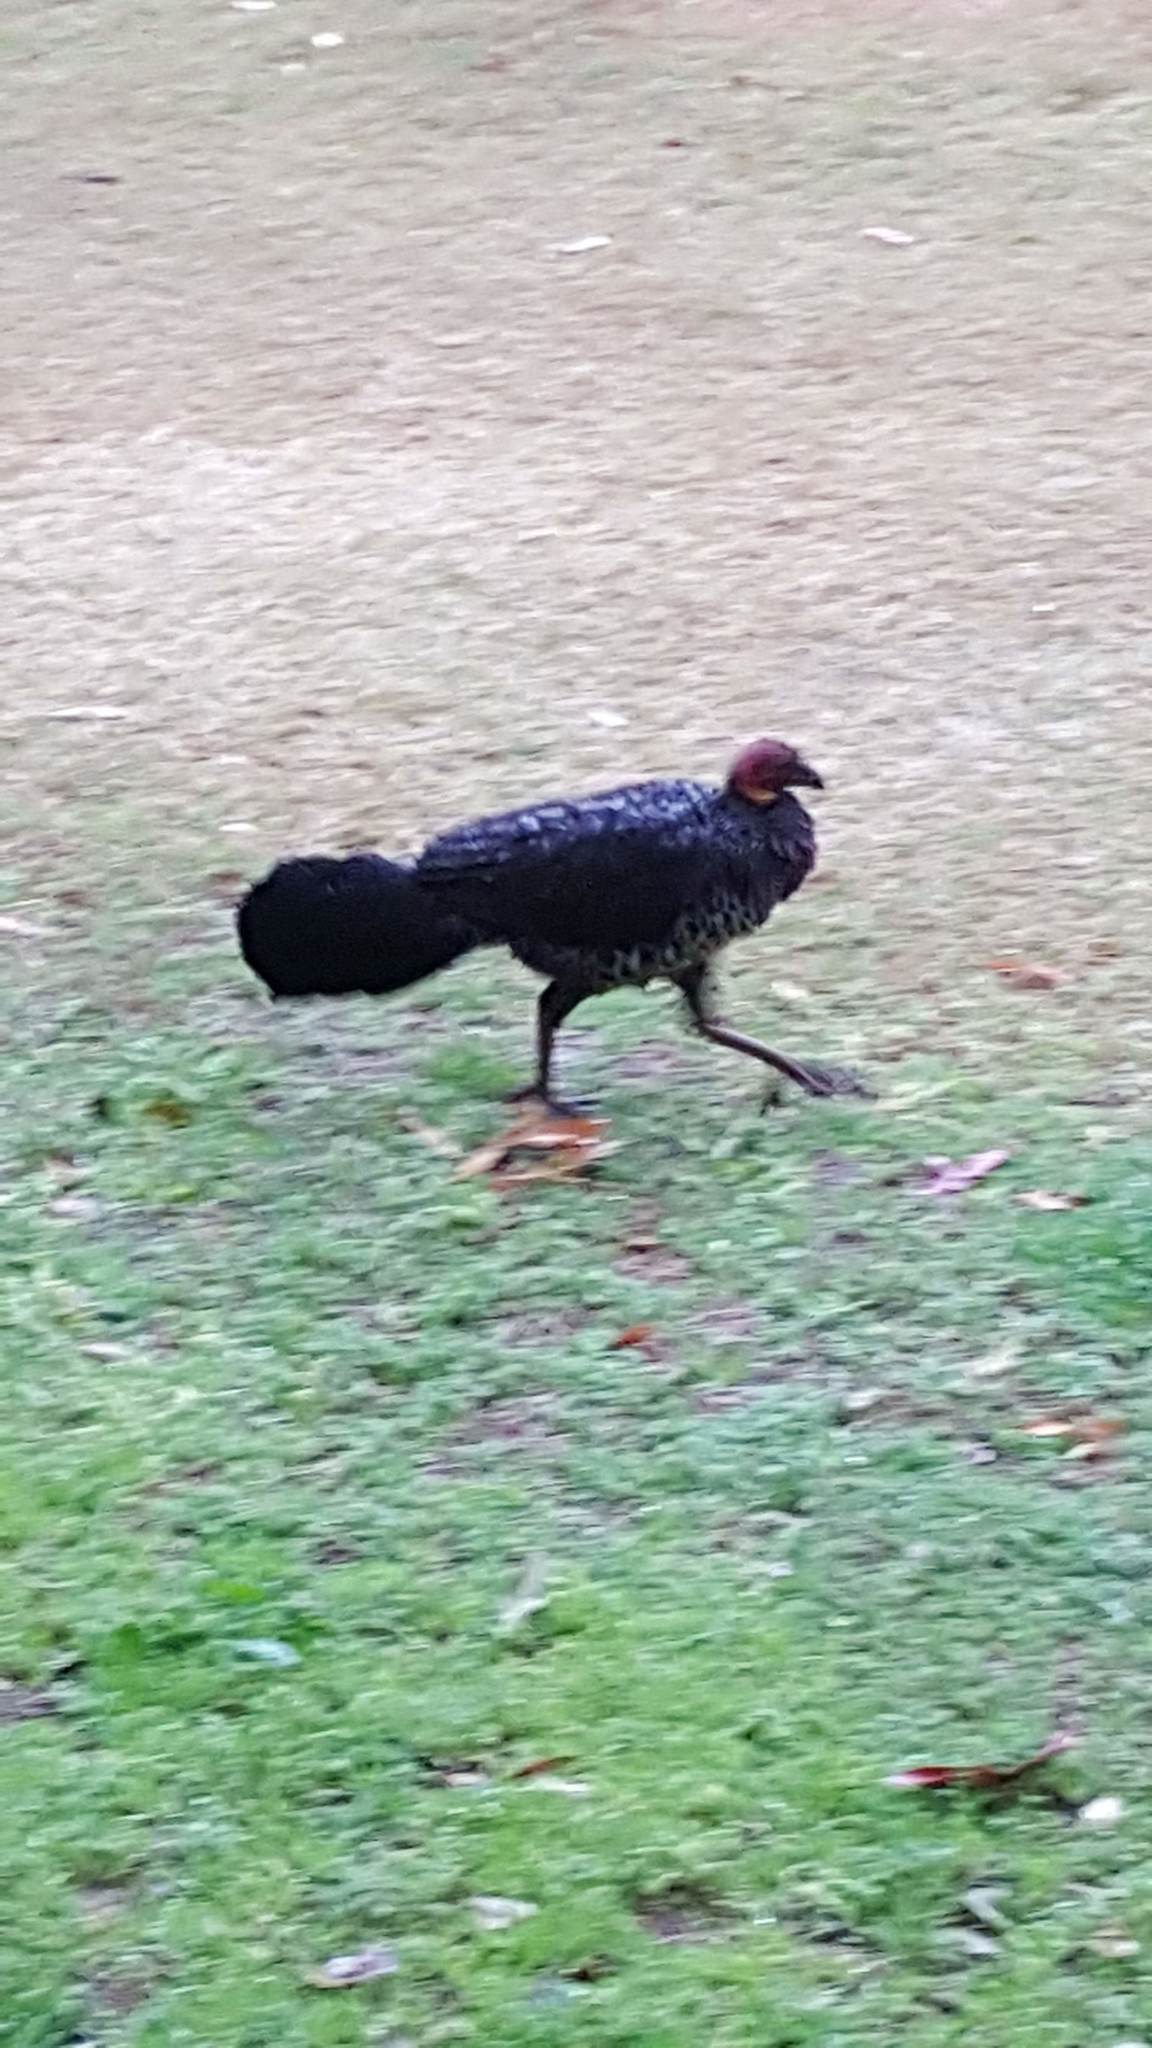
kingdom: Animalia
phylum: Chordata
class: Aves
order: Galliformes
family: Megapodiidae
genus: Alectura
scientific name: Alectura lathami
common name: Australian brushturkey
